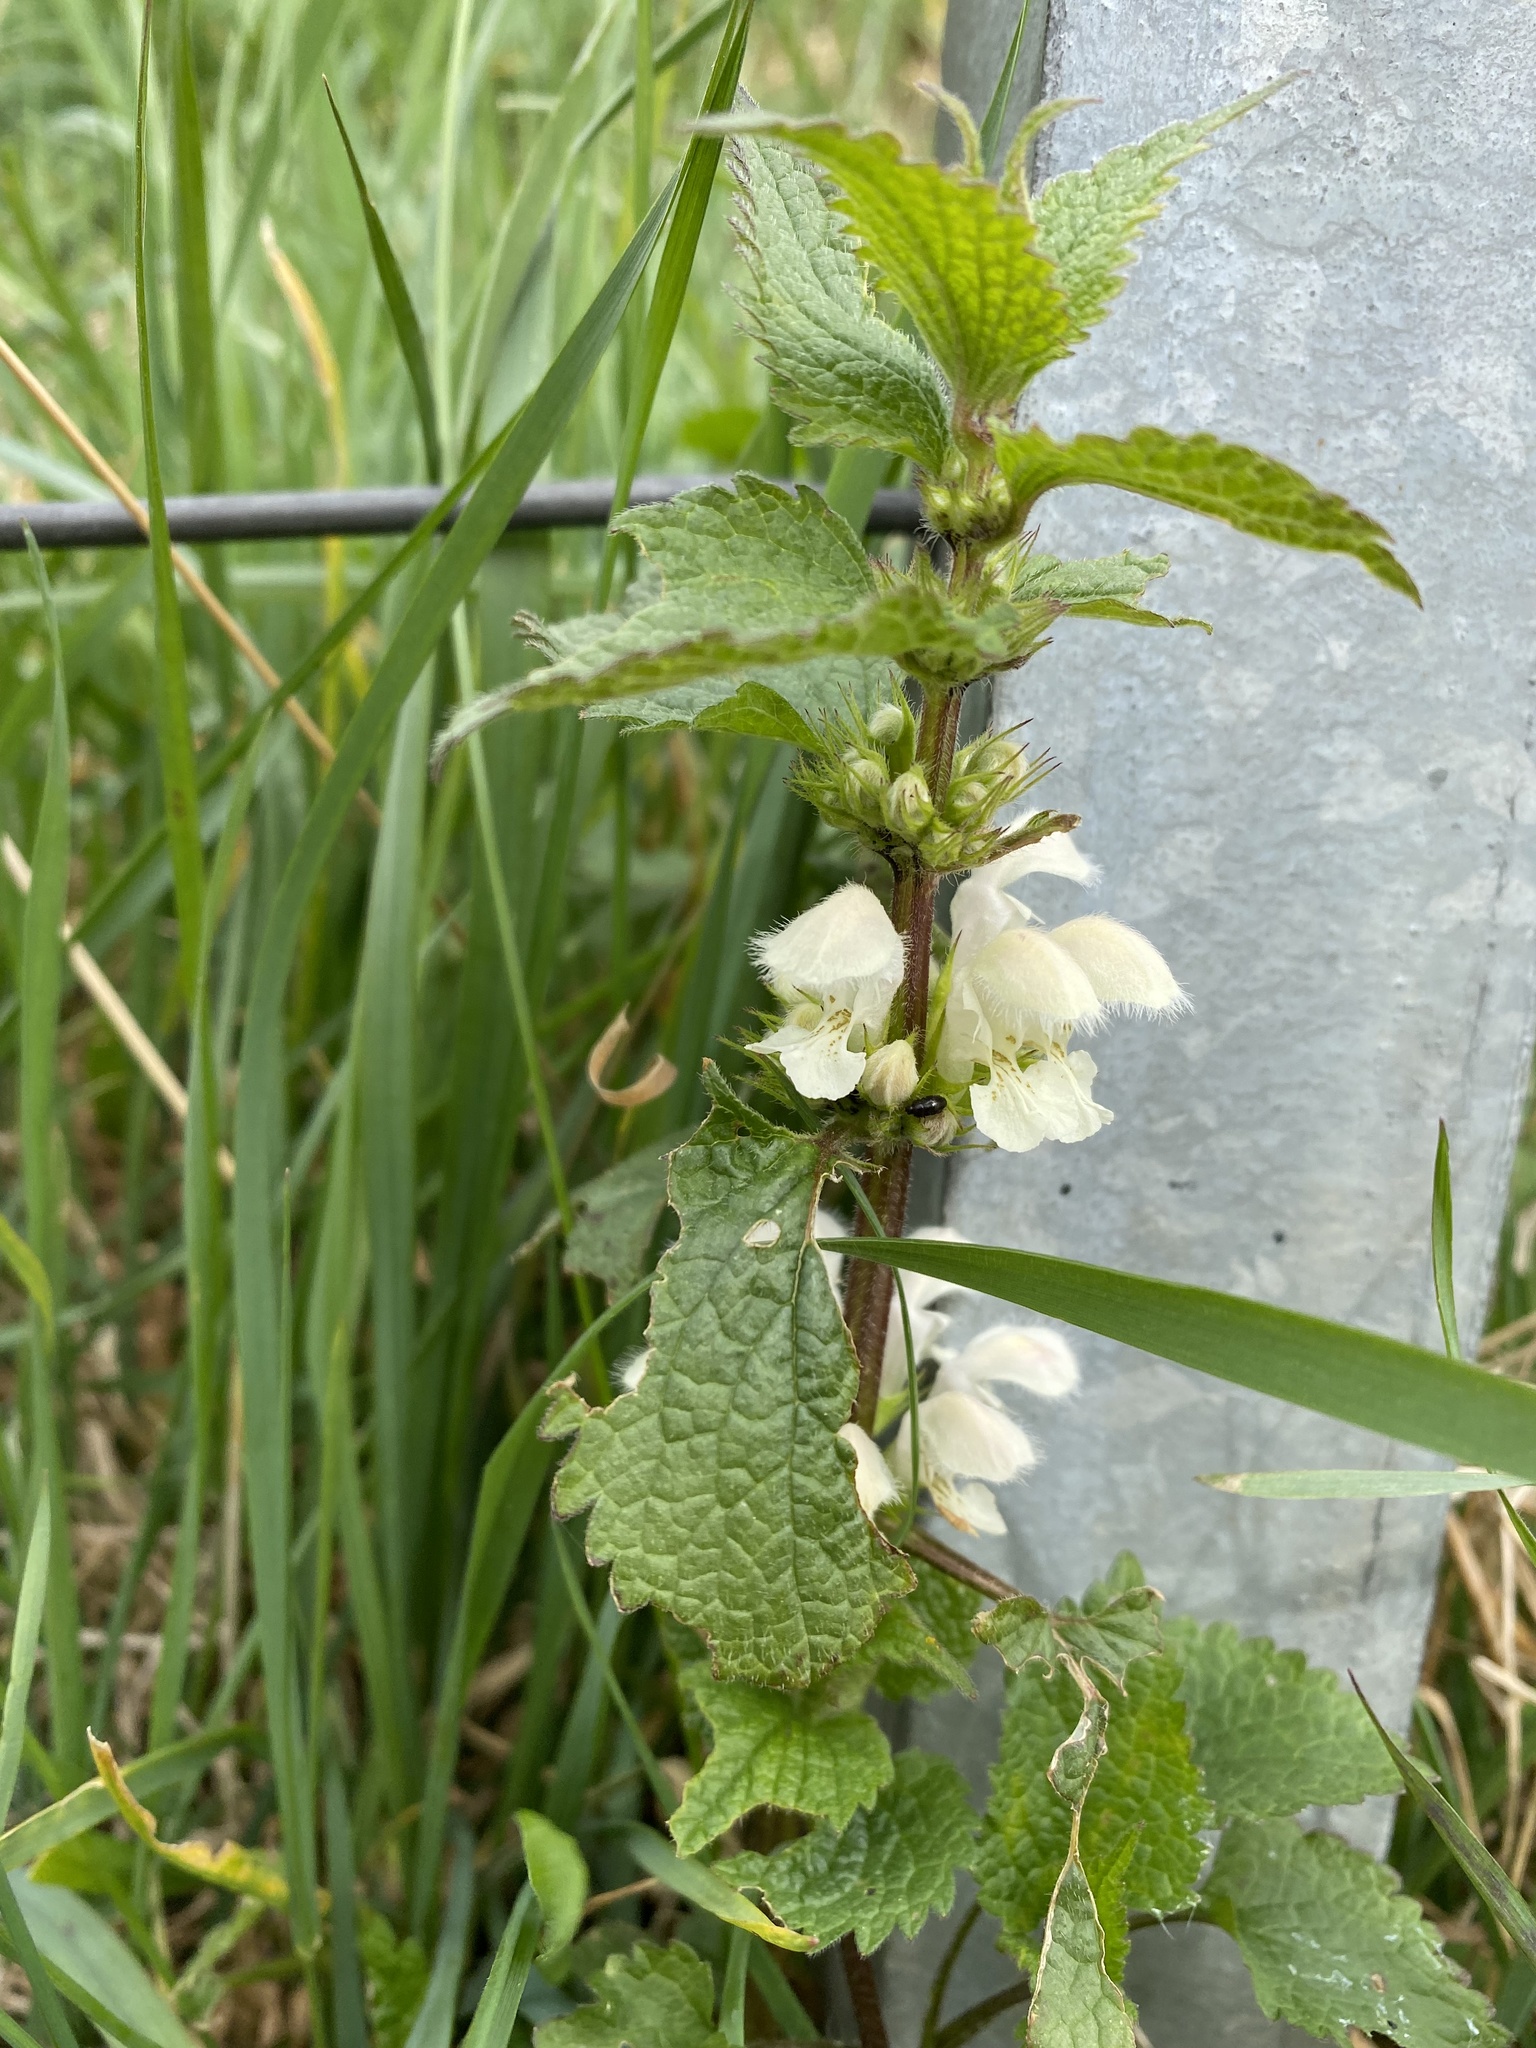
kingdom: Plantae
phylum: Tracheophyta
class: Magnoliopsida
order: Lamiales
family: Lamiaceae
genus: Lamium
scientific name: Lamium album
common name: White dead-nettle
